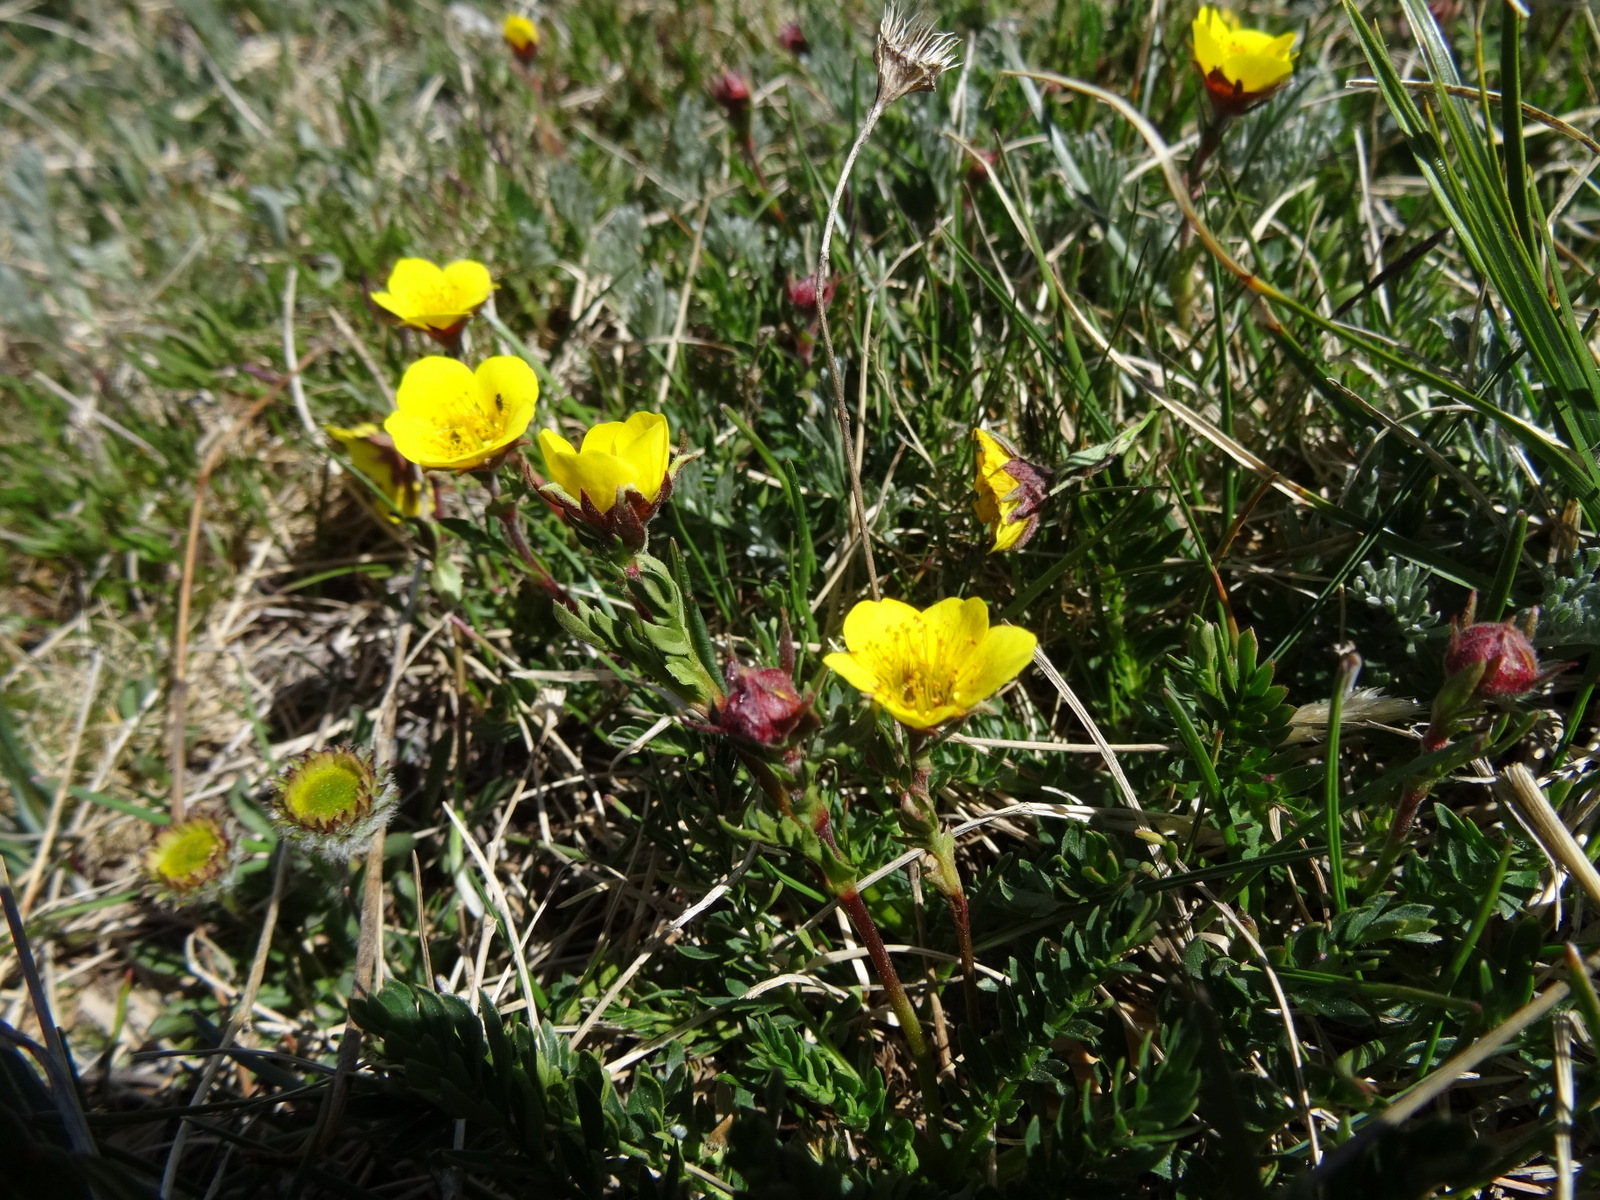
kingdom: Plantae
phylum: Tracheophyta
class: Magnoliopsida
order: Rosales
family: Rosaceae
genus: Geum
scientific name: Geum rossii
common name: Alpine avens
